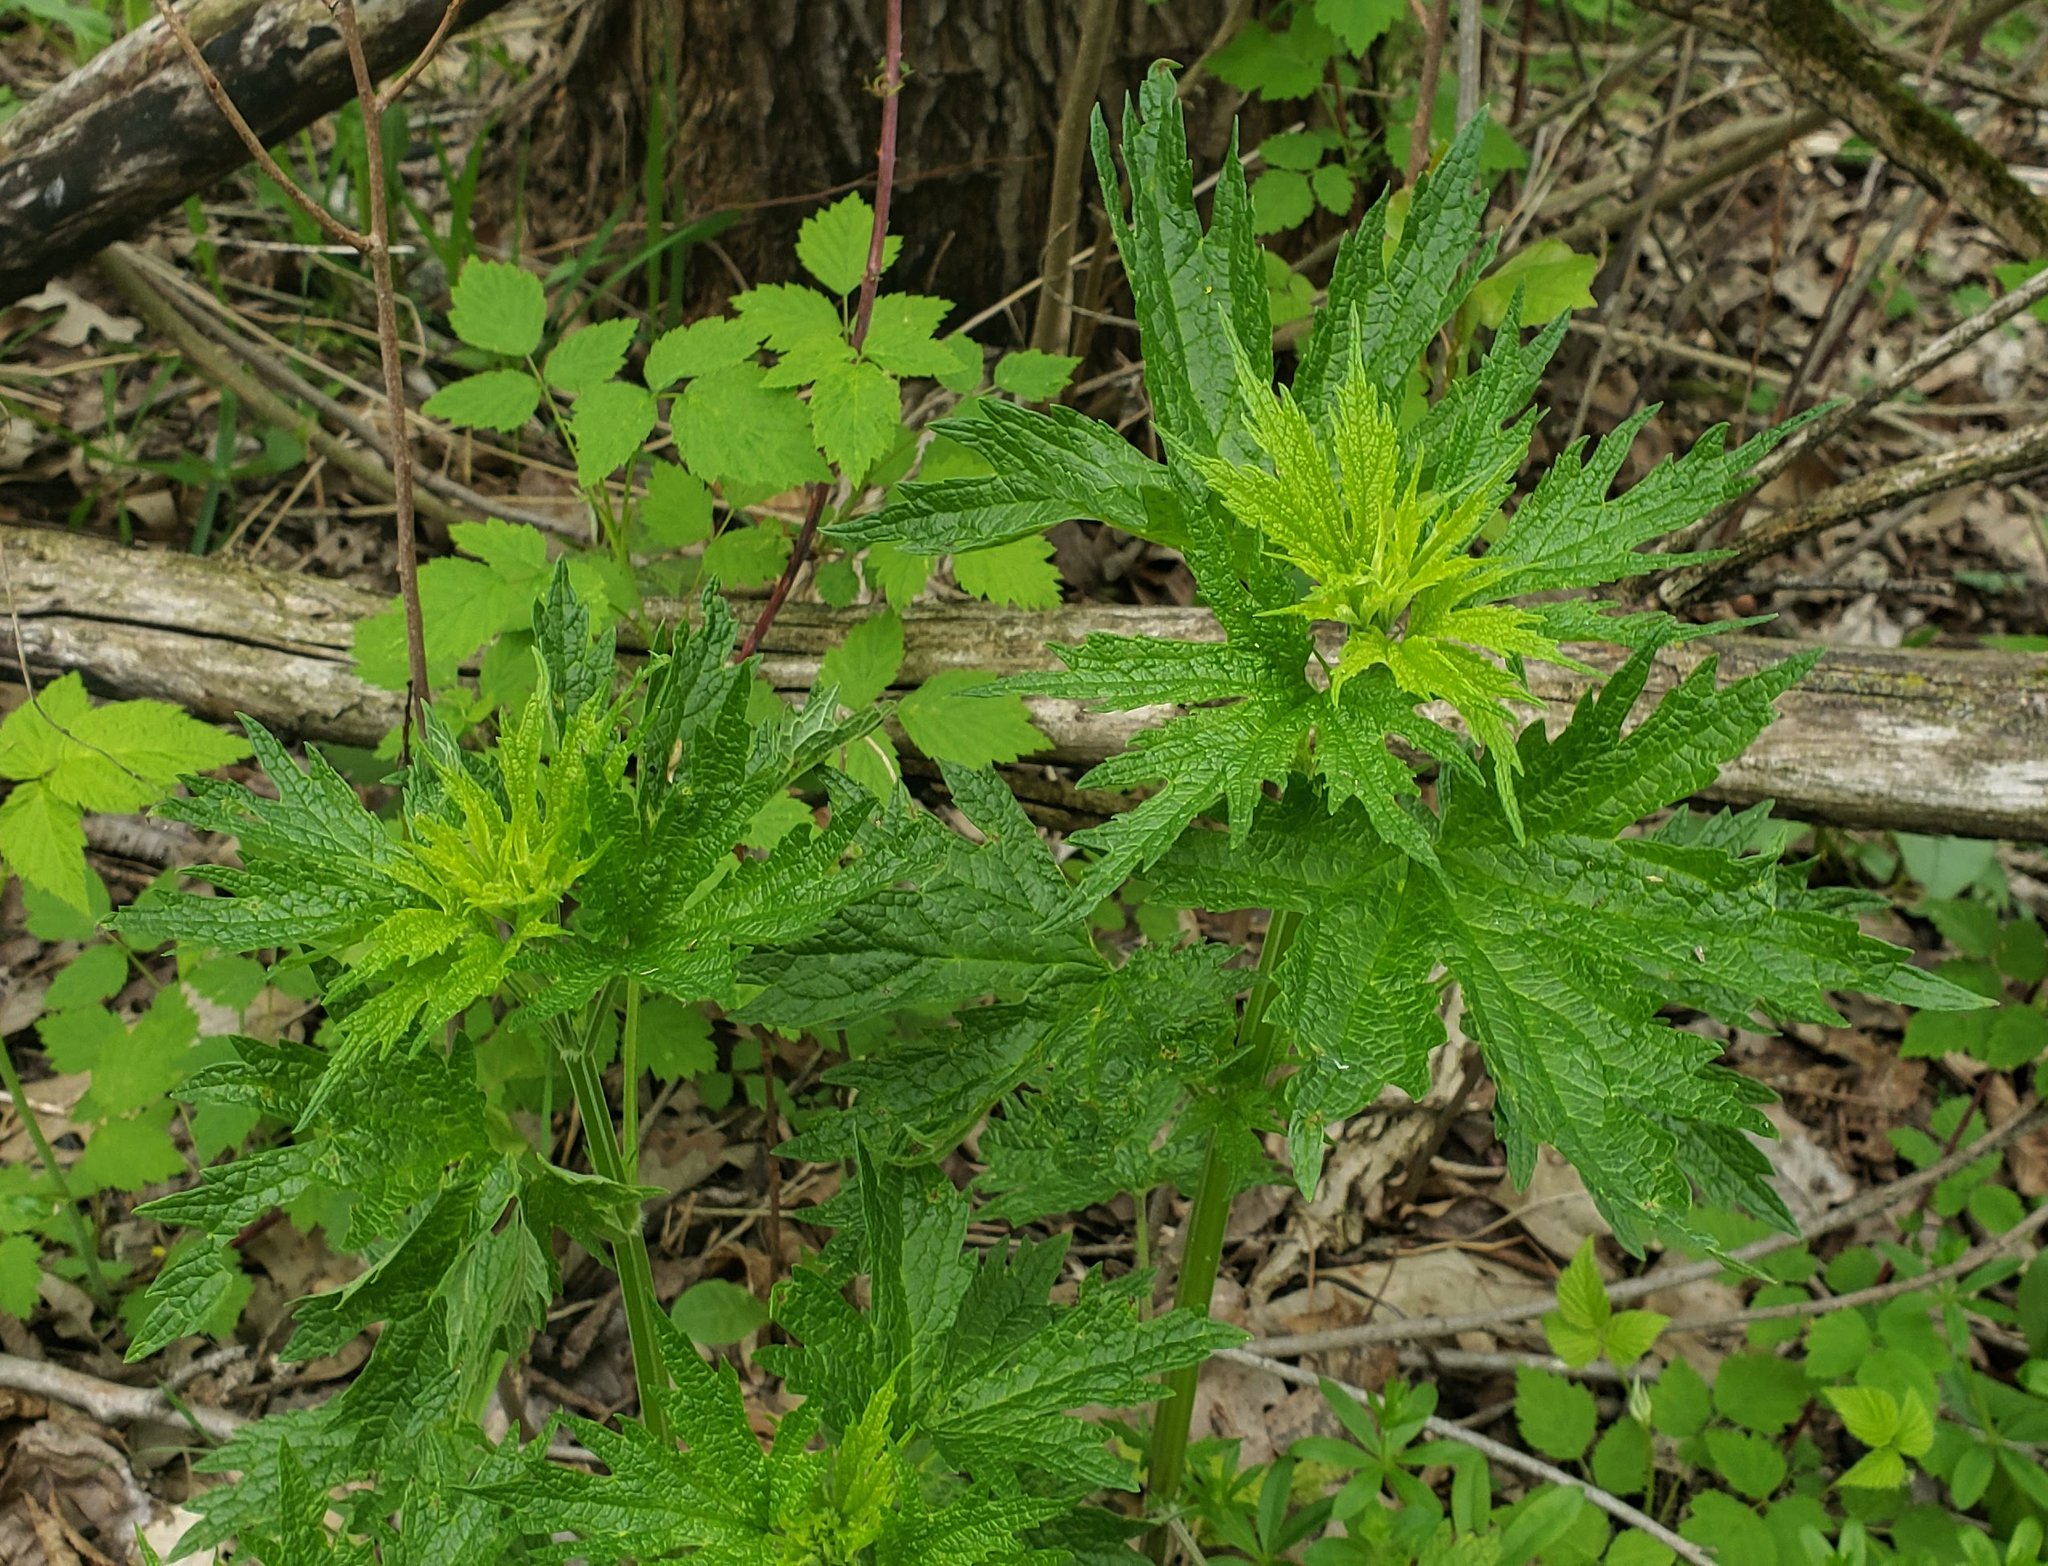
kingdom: Plantae
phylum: Tracheophyta
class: Magnoliopsida
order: Lamiales
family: Lamiaceae
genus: Leonurus
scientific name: Leonurus cardiaca
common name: Motherwort
